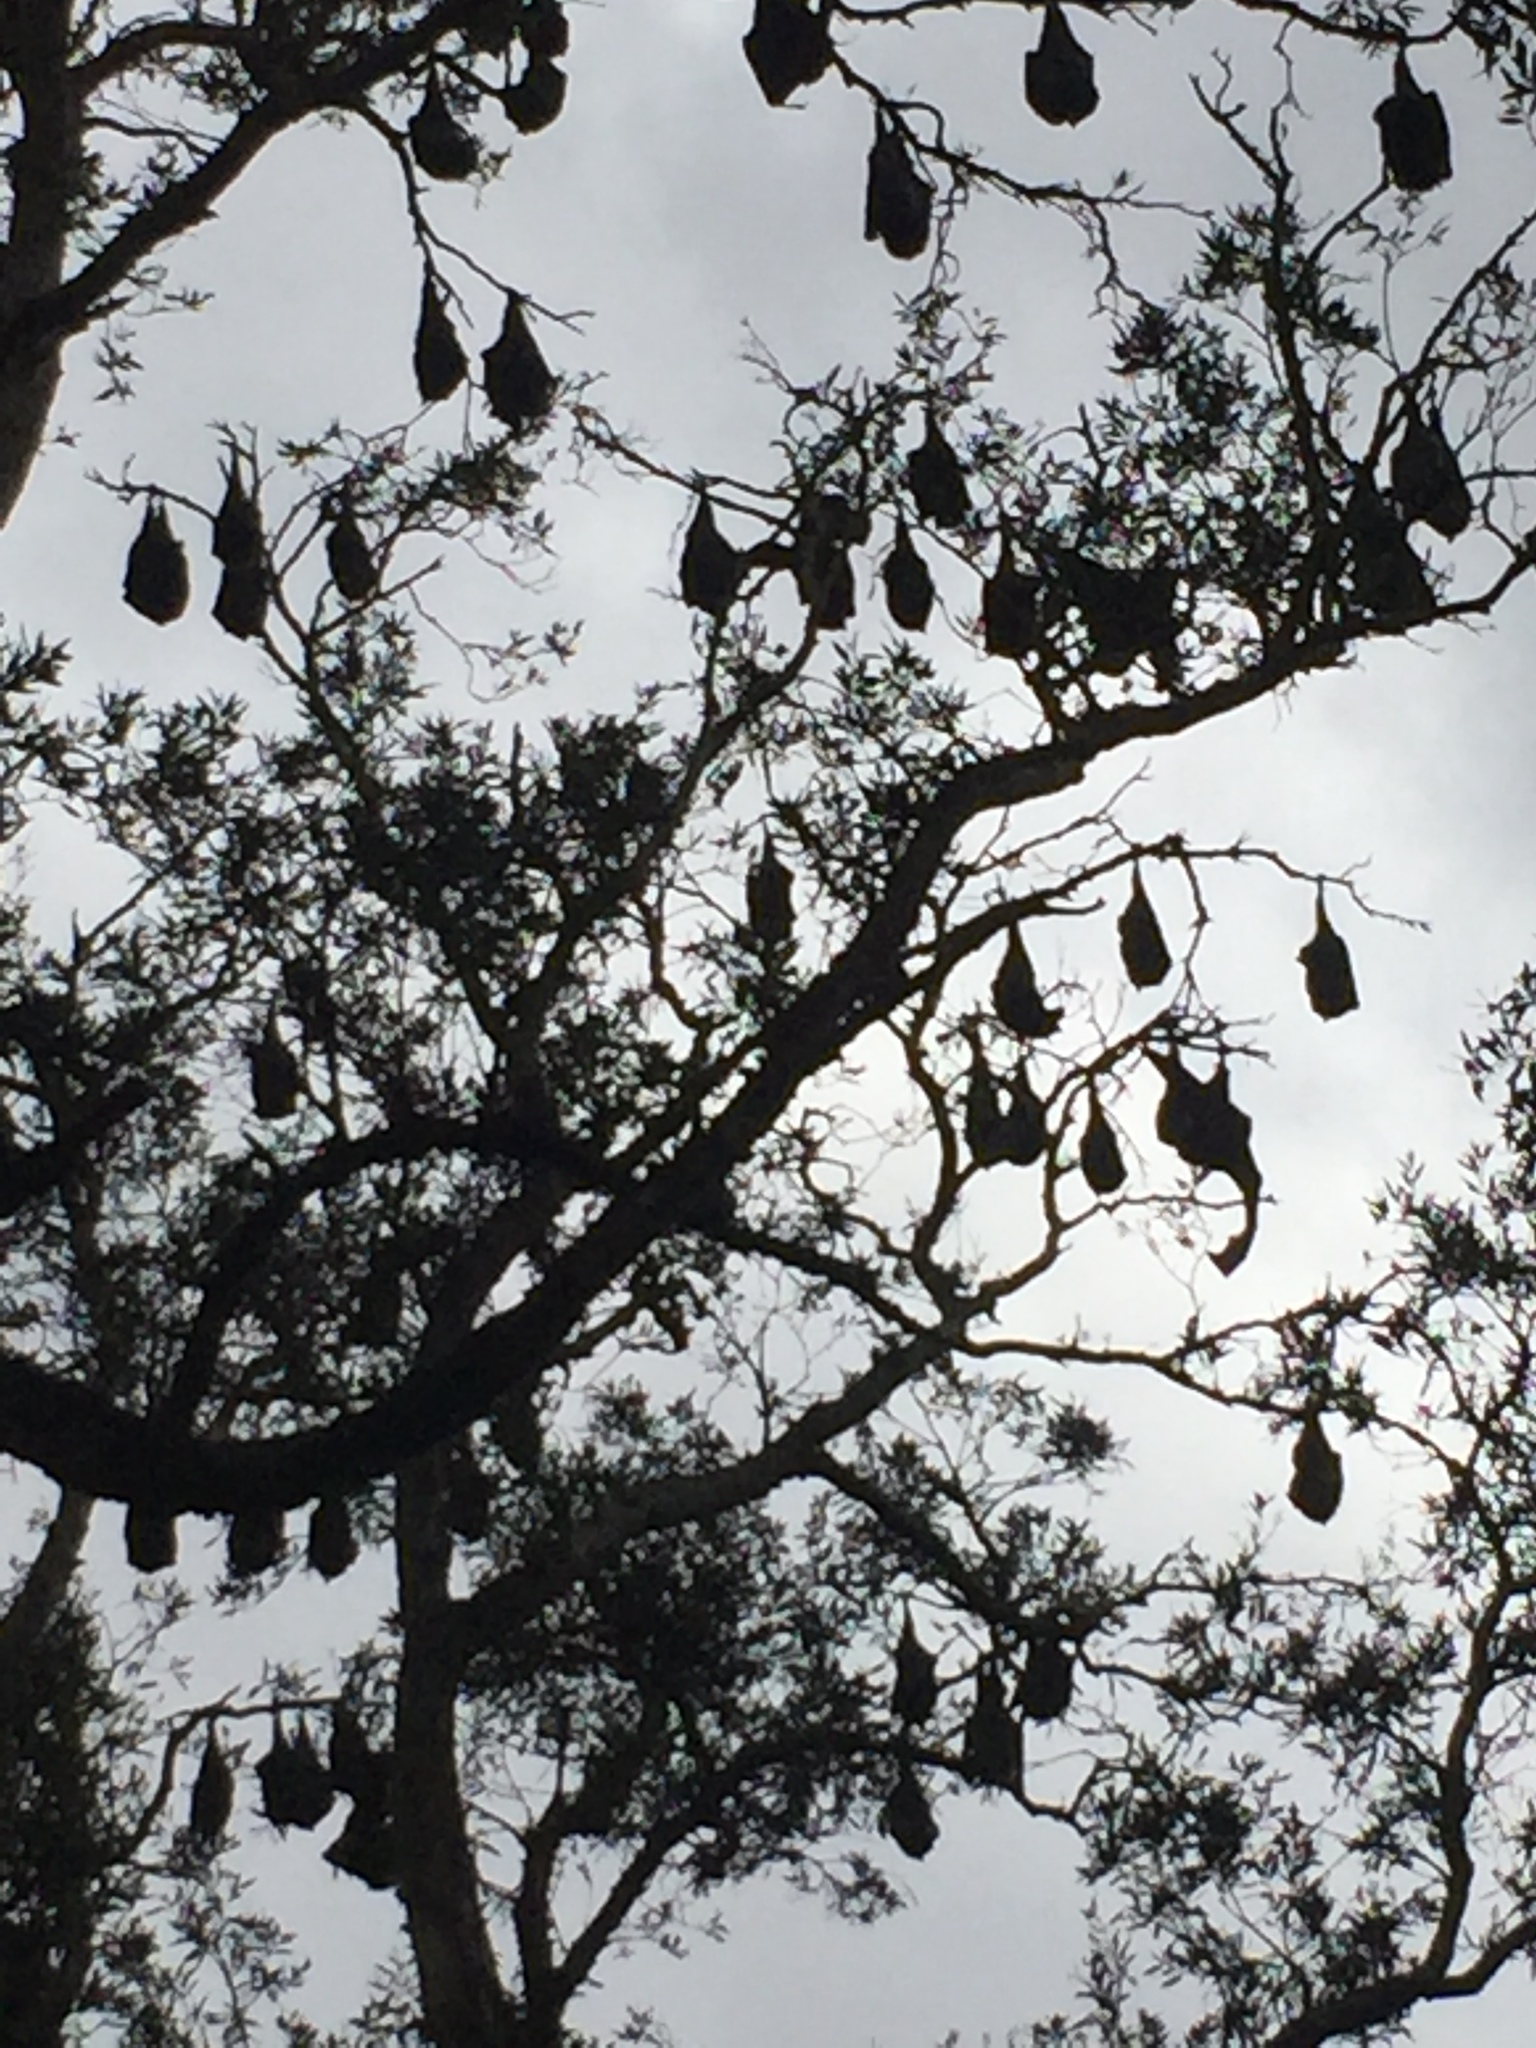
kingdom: Animalia
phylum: Chordata
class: Mammalia
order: Chiroptera
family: Pteropodidae
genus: Pteropus
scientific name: Pteropus poliocephalus
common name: Gray-headed flying fox
